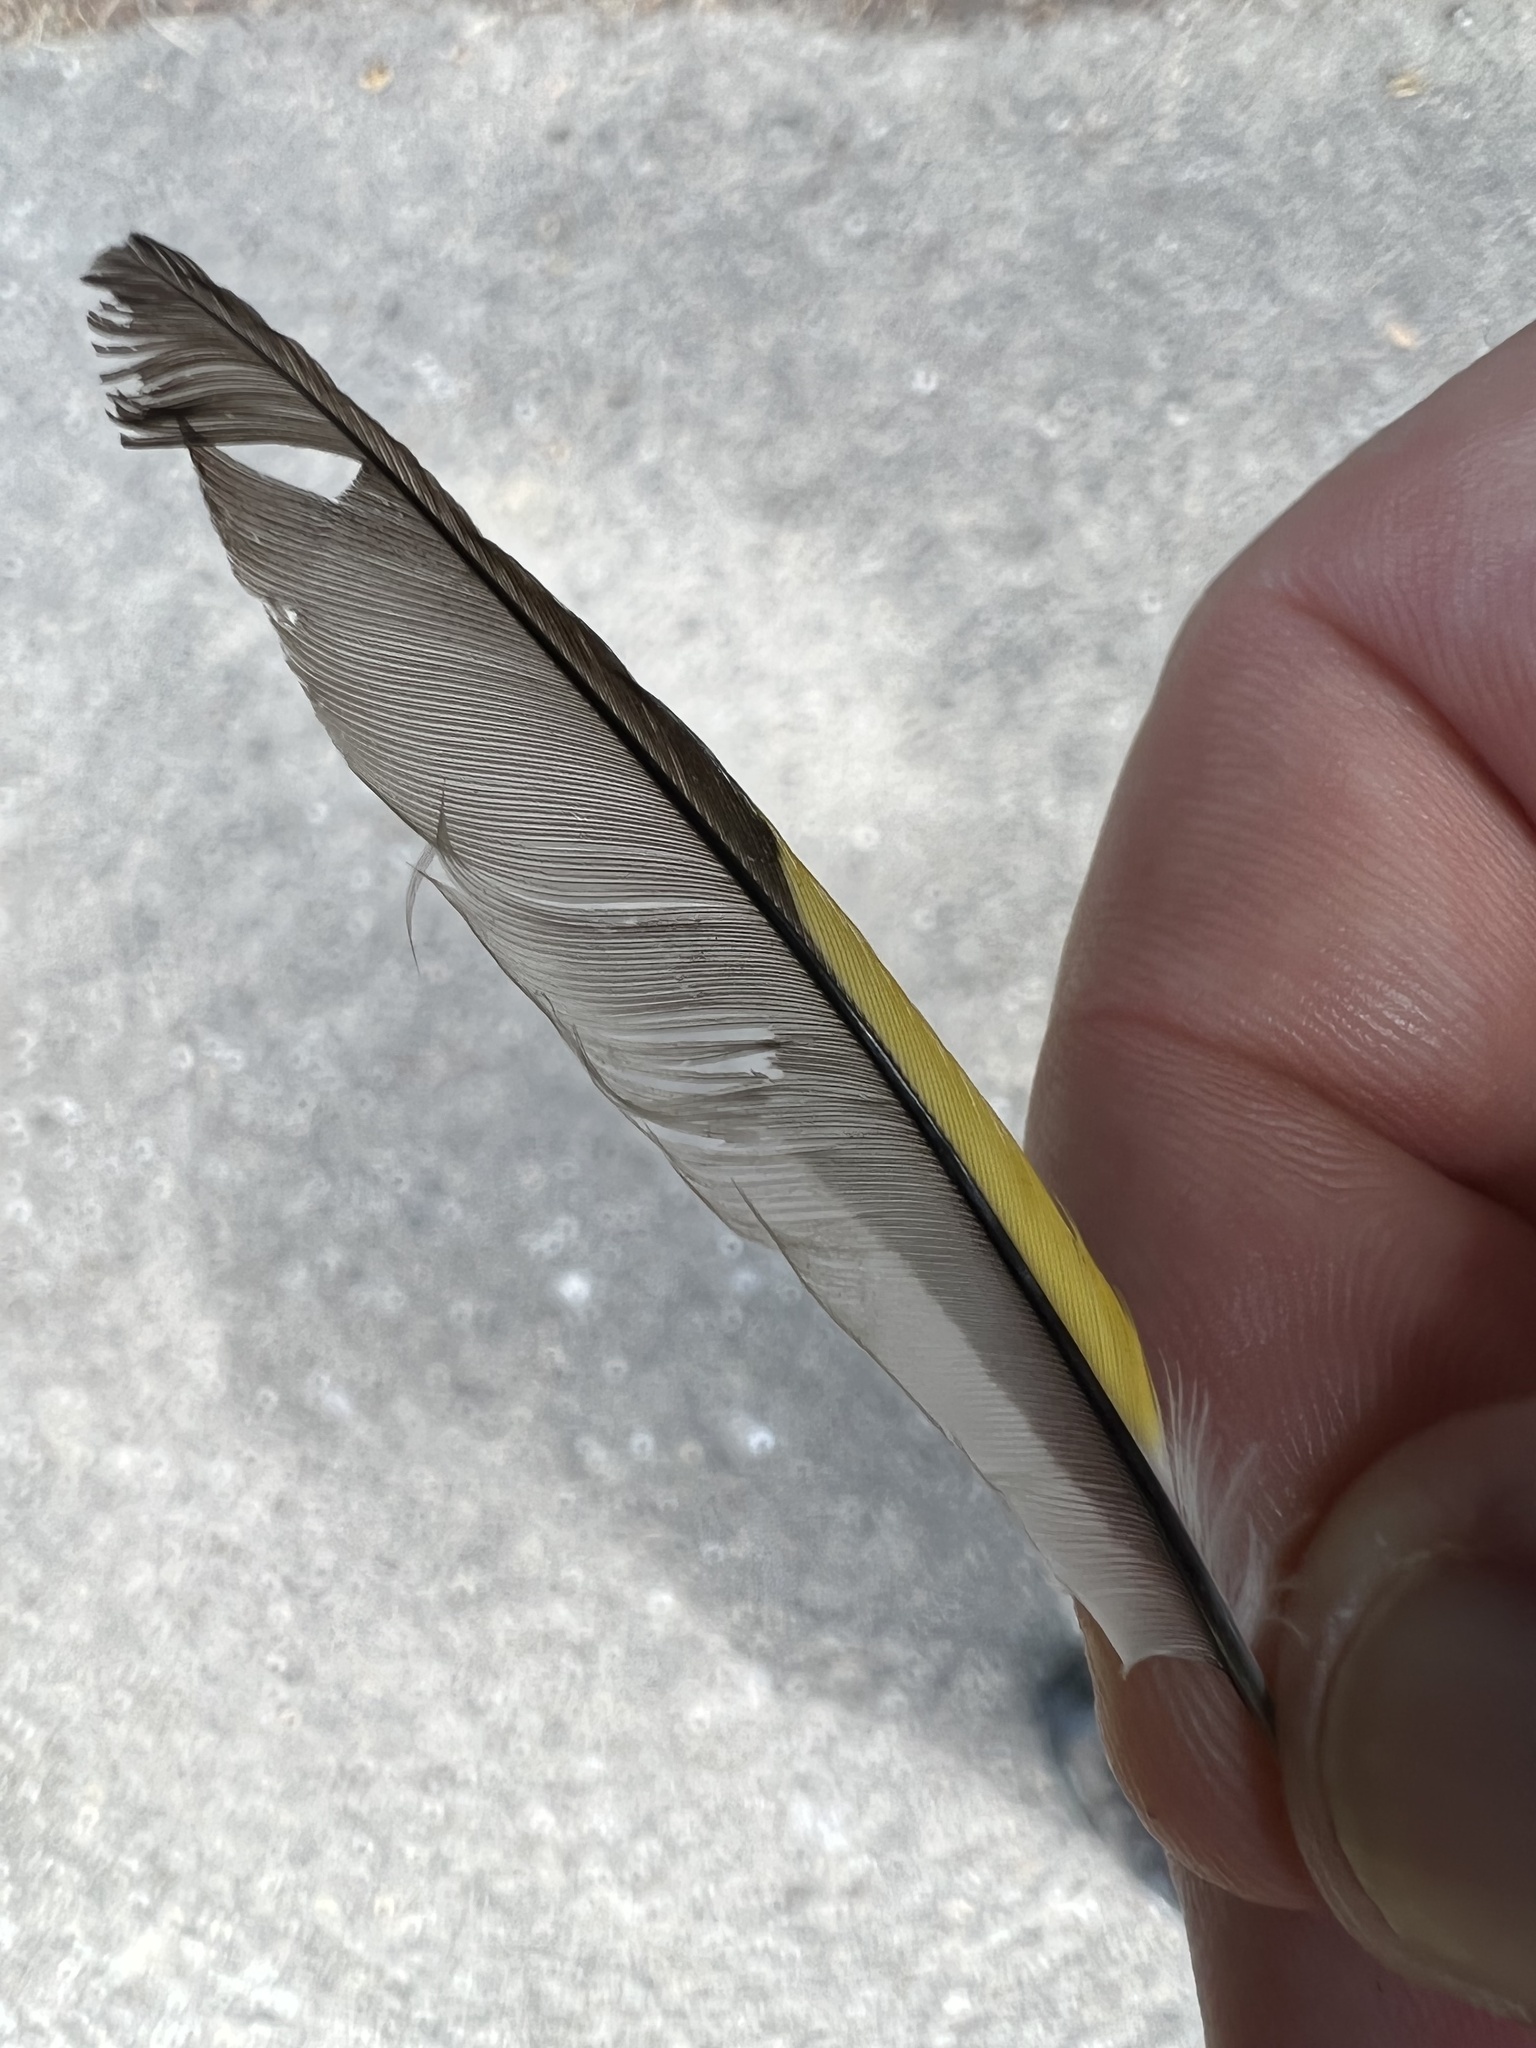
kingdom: Animalia
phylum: Chordata
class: Aves
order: Passeriformes
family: Fringillidae
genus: Carduelis
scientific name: Carduelis carduelis
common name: European goldfinch
